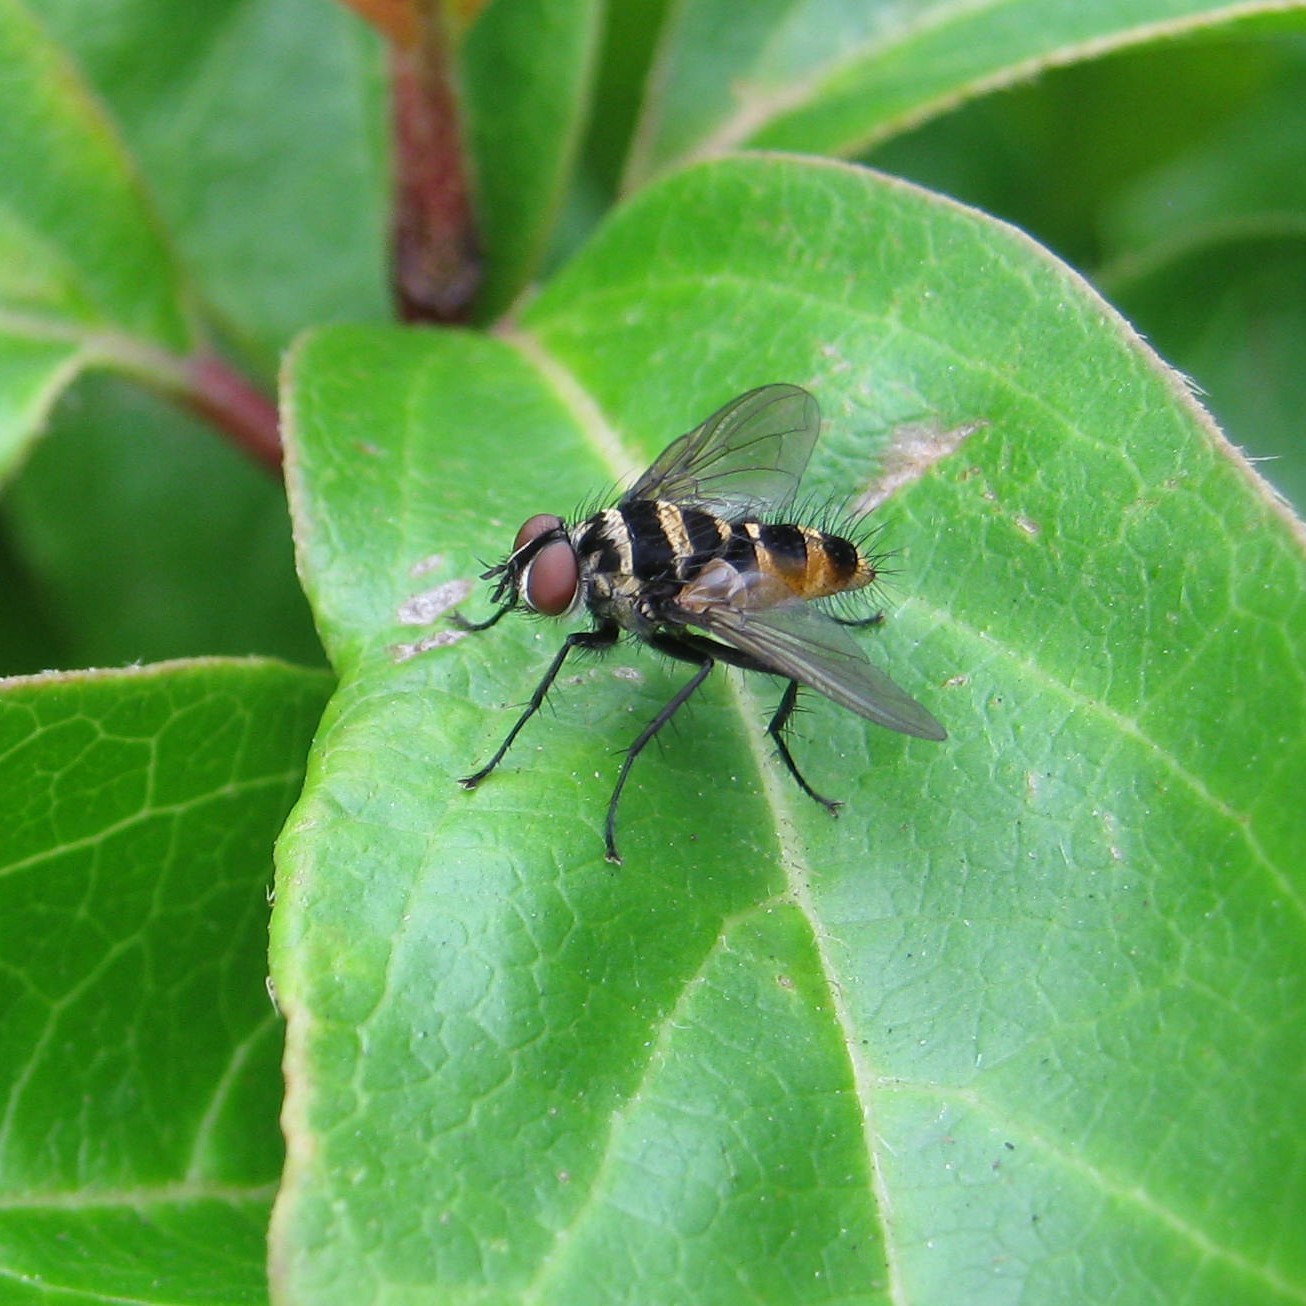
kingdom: Animalia
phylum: Arthropoda
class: Insecta
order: Diptera
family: Tachinidae
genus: Trigonospila
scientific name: Trigonospila brevifacies
